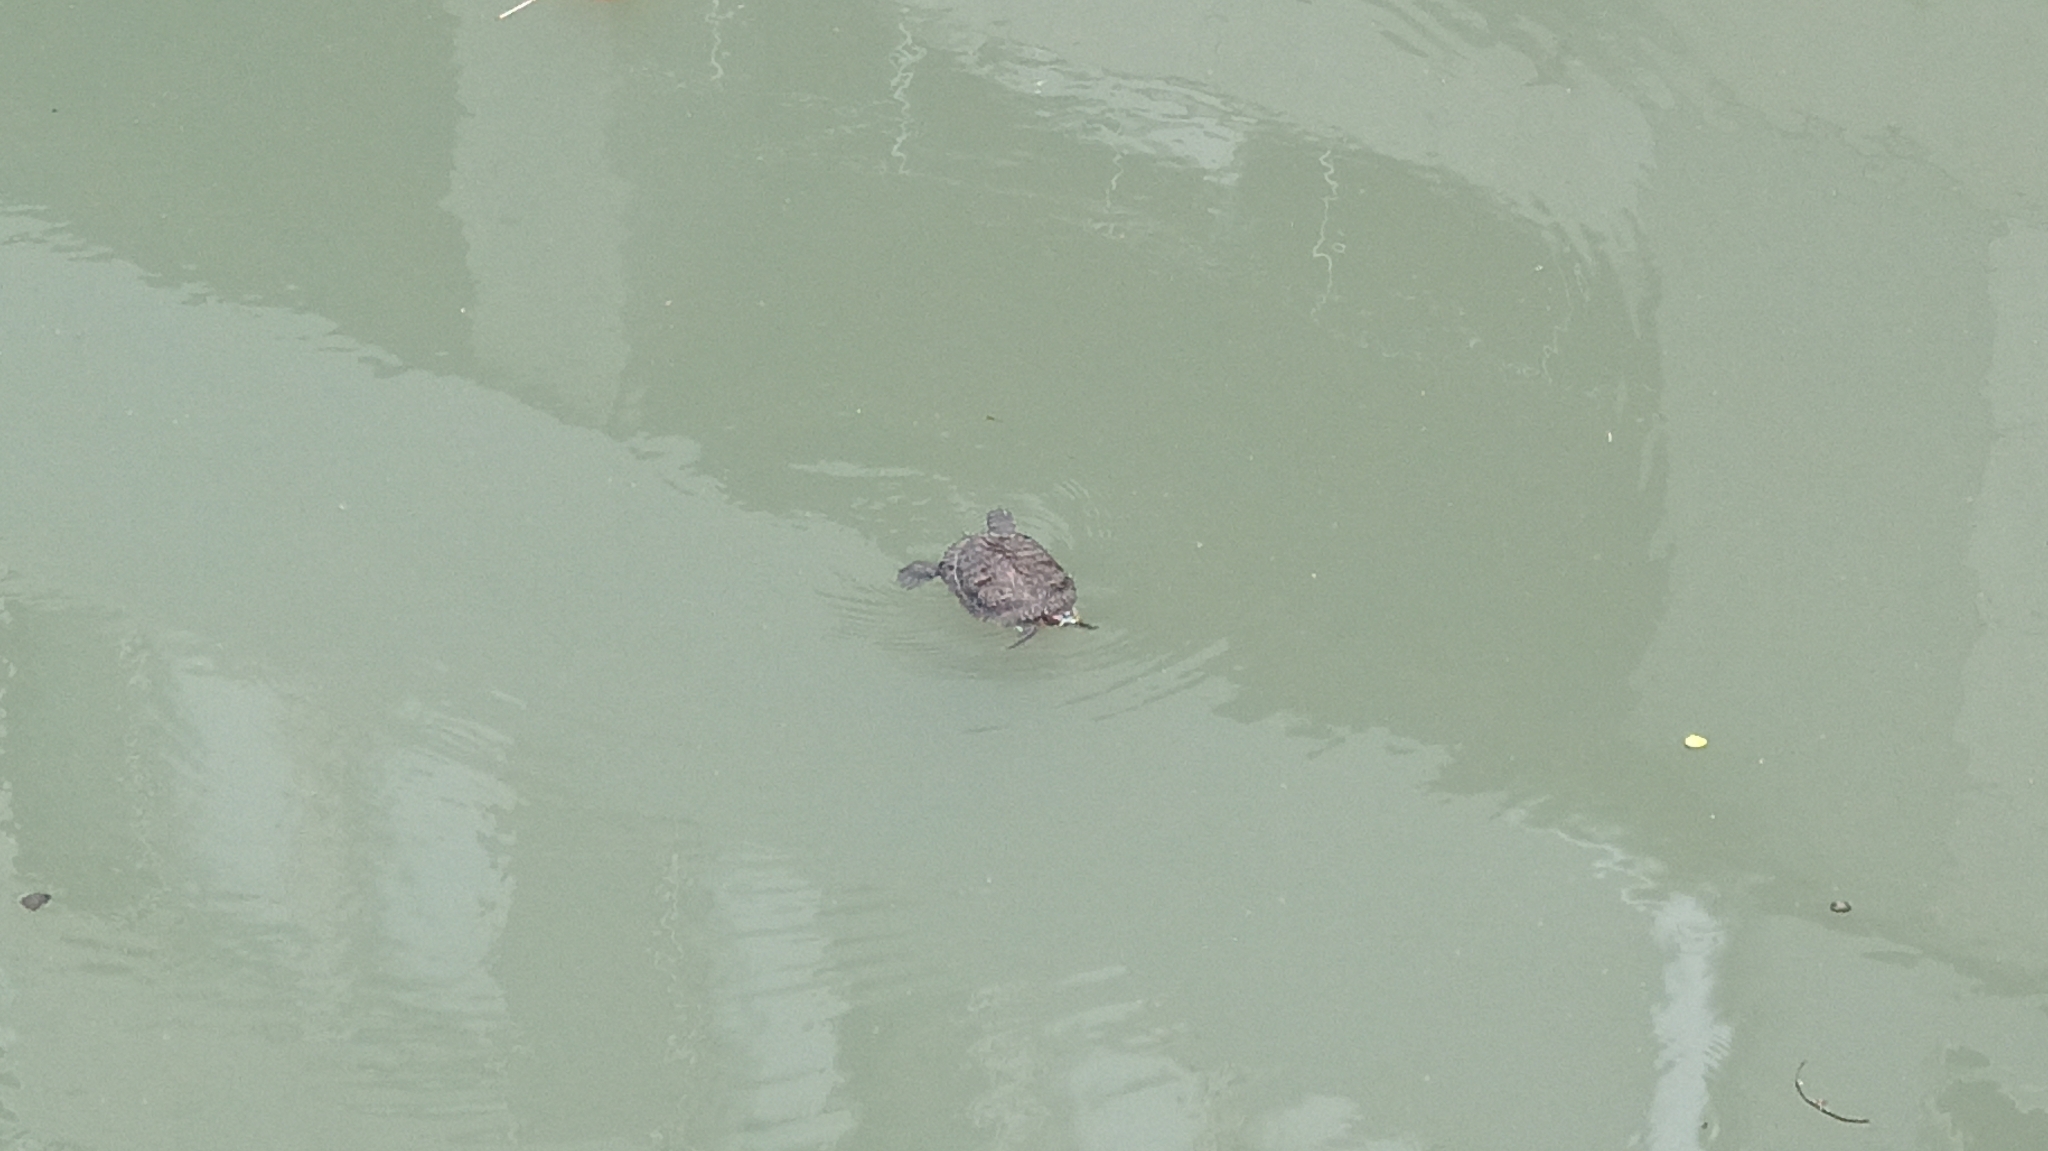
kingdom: Animalia
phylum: Chordata
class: Testudines
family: Emydidae
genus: Trachemys
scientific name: Trachemys scripta
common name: Slider
